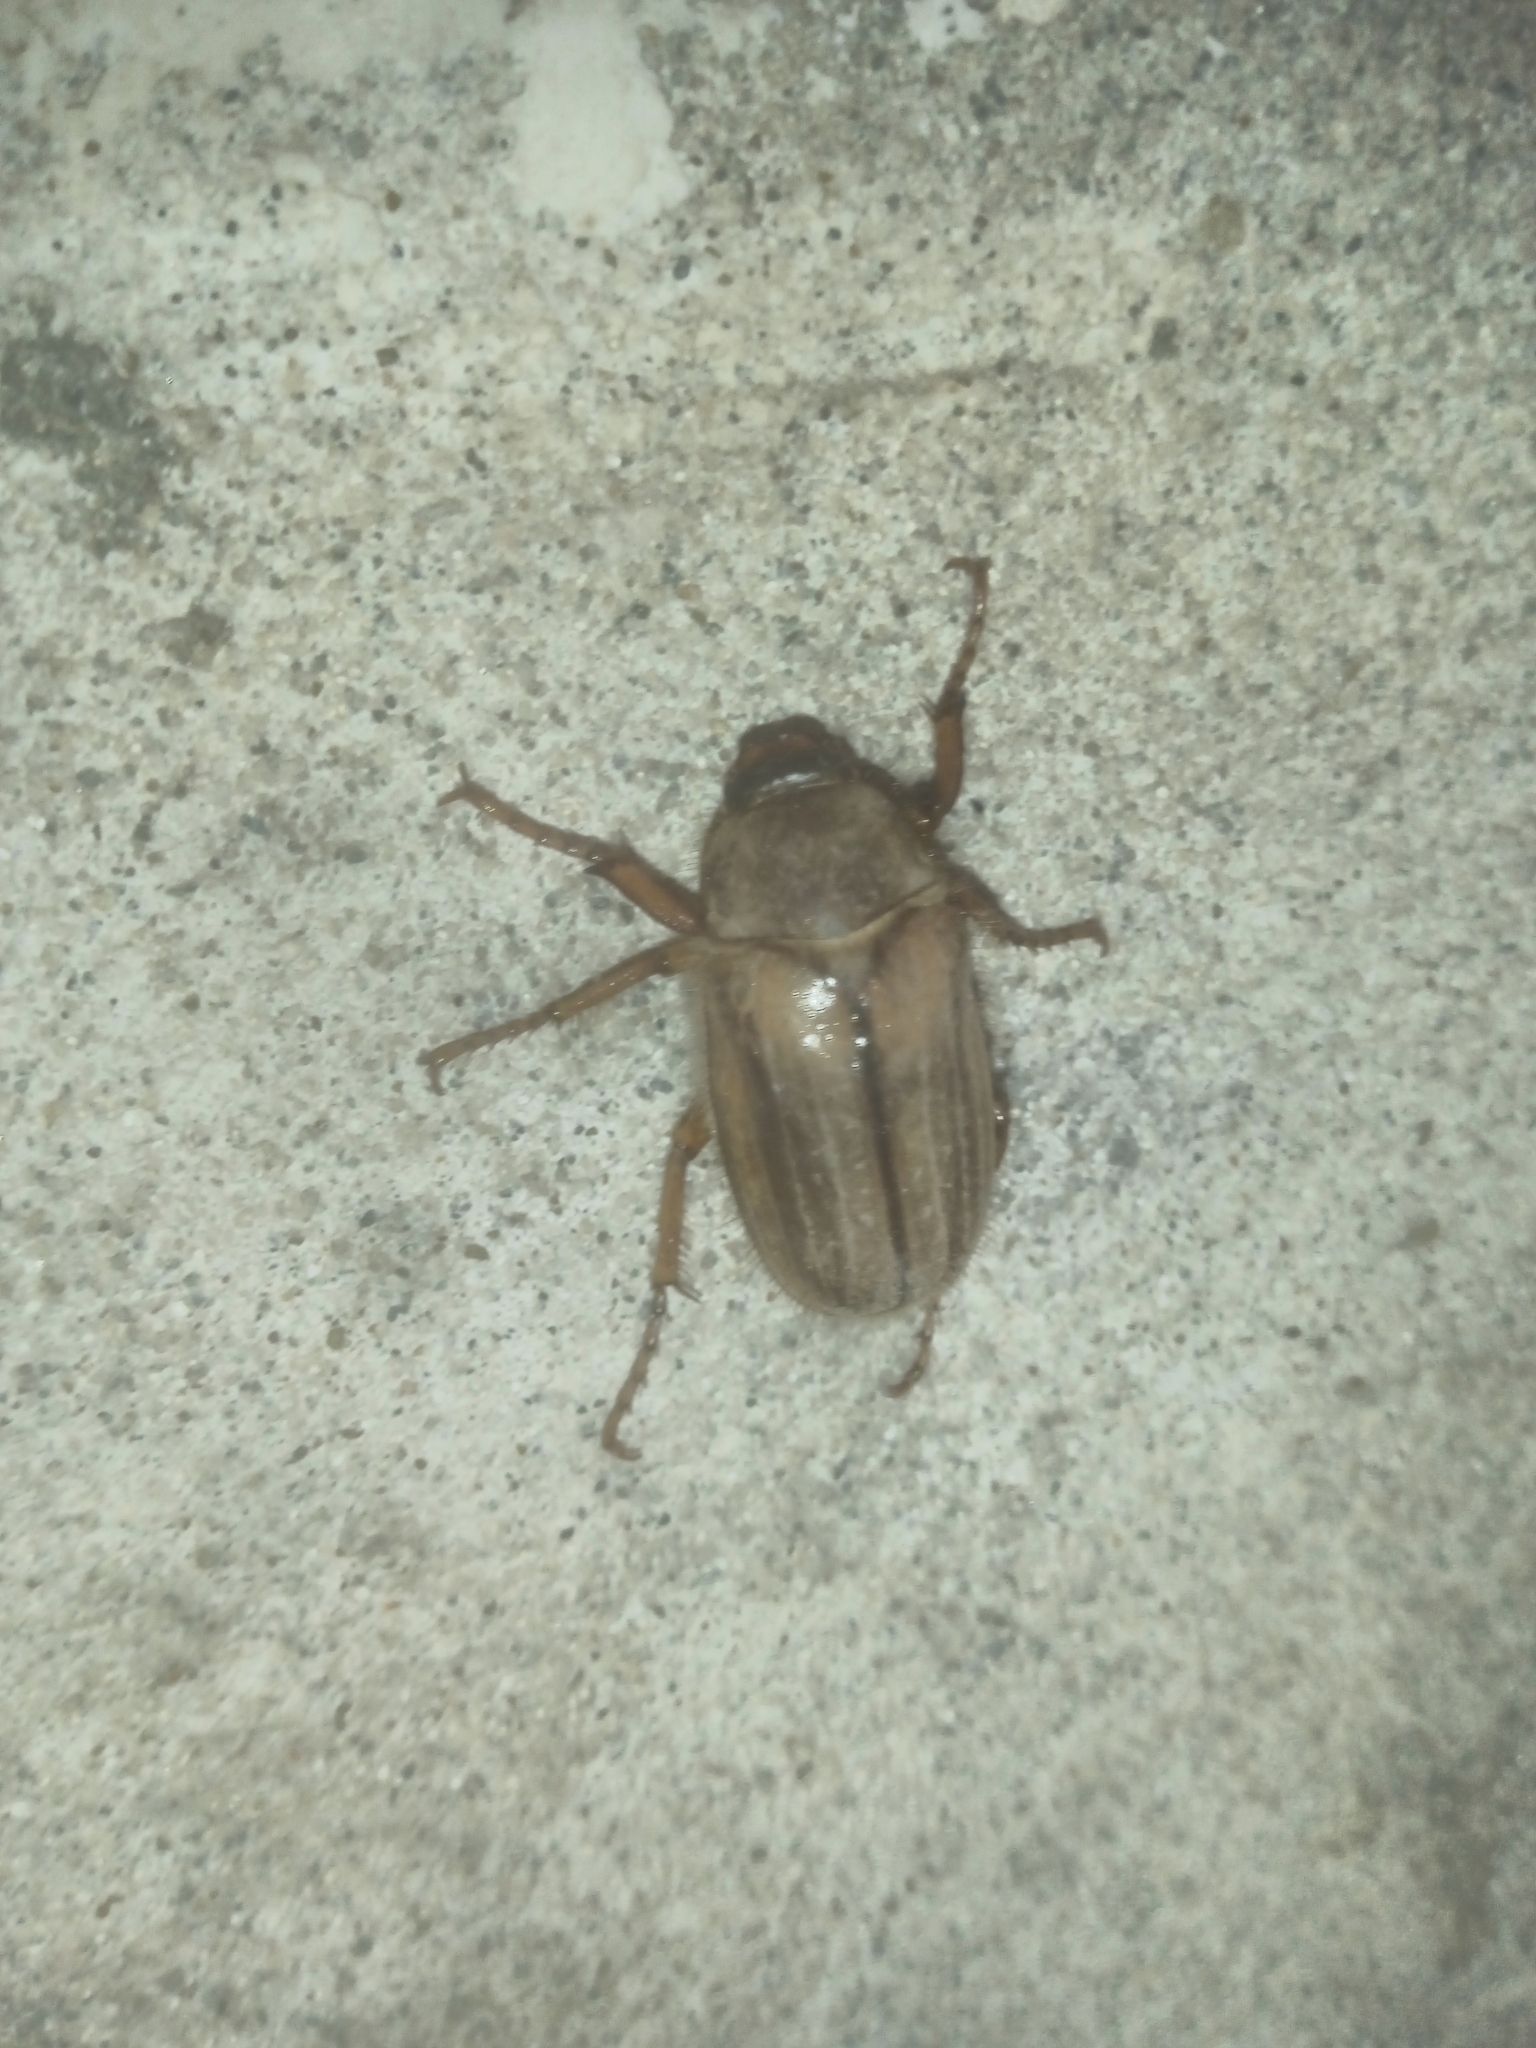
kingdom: Animalia
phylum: Arthropoda
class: Insecta
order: Coleoptera
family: Scarabaeidae
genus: Amphimallon
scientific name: Amphimallon solstitiale
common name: Summer chafer
